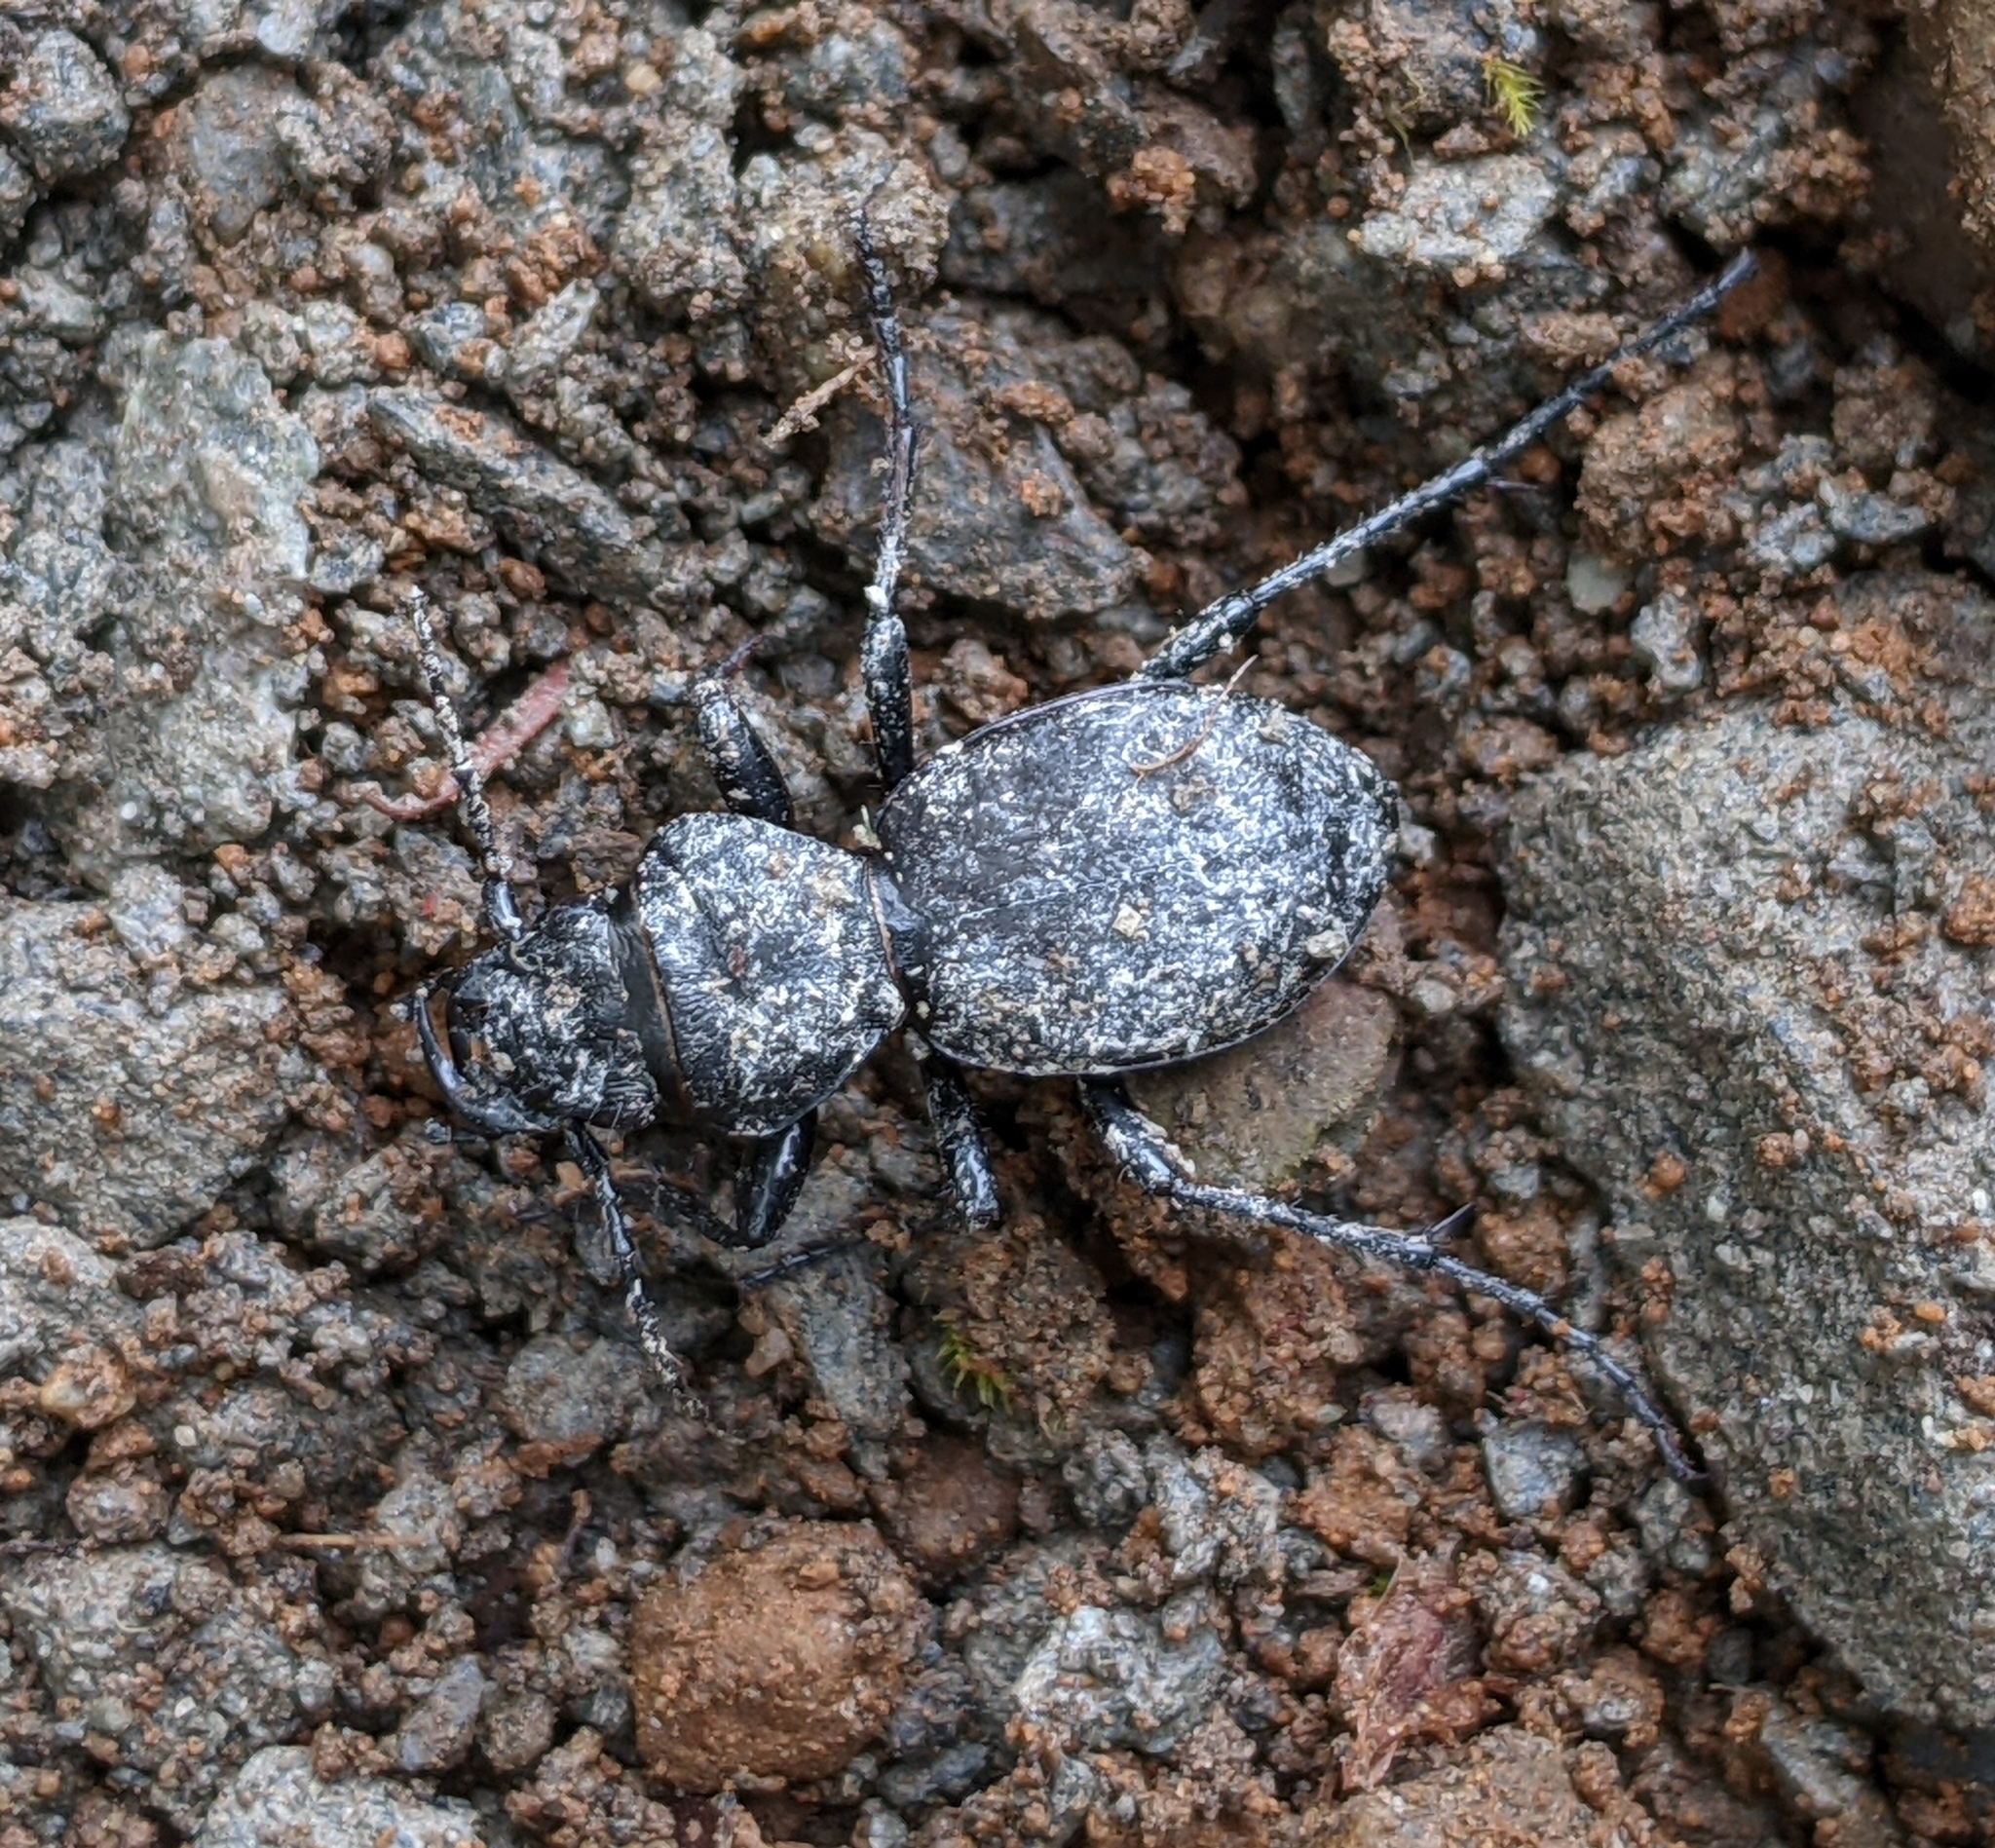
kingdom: Animalia
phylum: Arthropoda
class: Insecta
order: Coleoptera
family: Carabidae
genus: Omus
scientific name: Omus dejeanii
